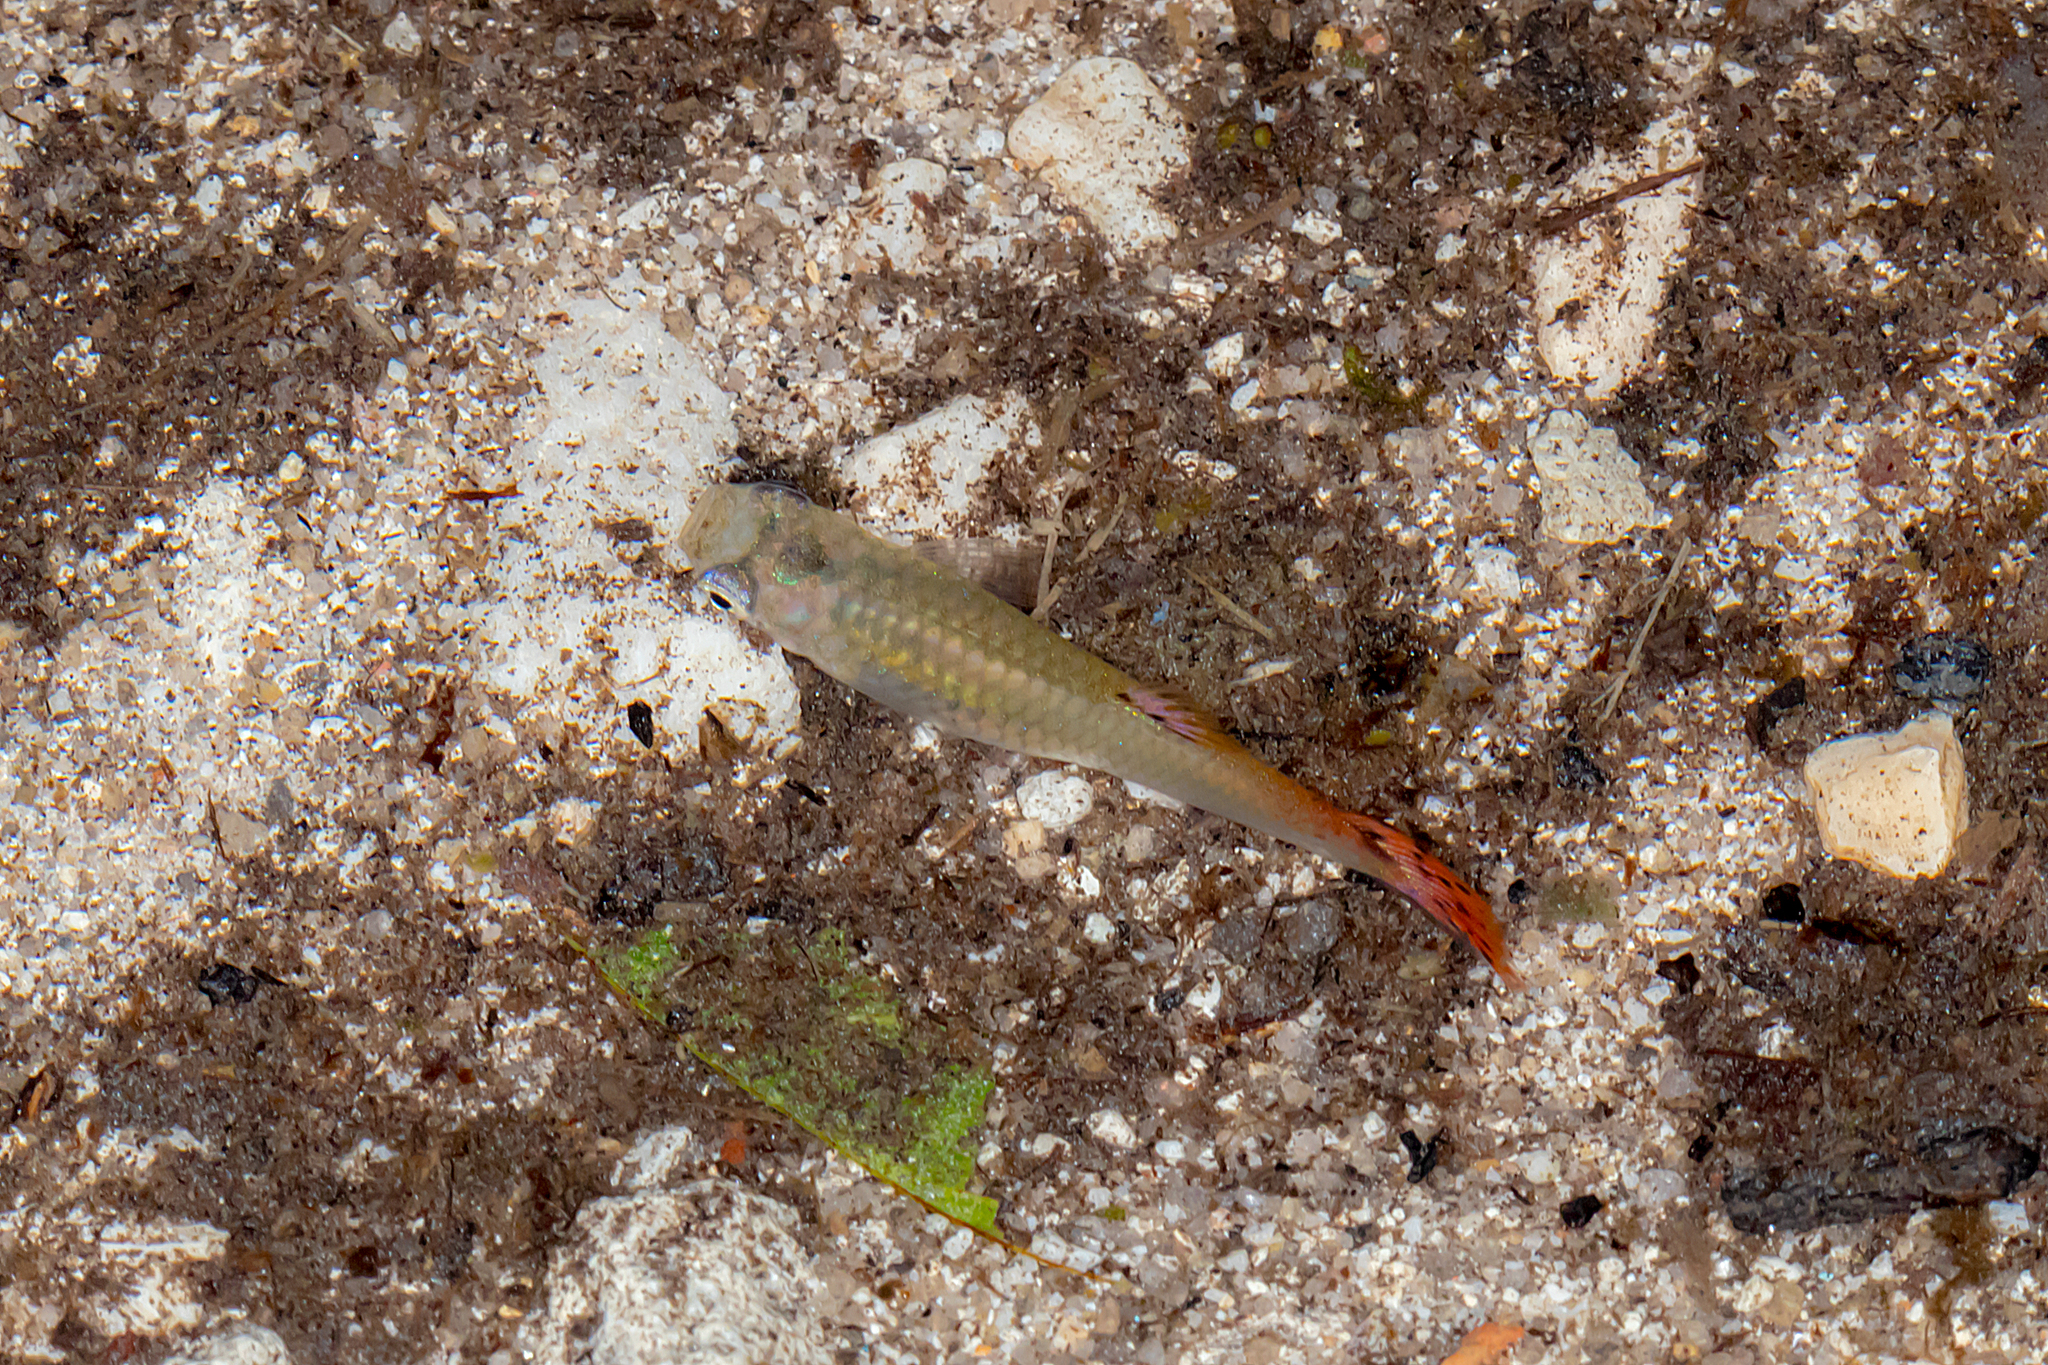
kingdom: Animalia
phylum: Chordata
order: Cyprinodontiformes
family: Poeciliidae
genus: Poecilia
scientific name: Poecilia reticulata
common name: Guppy
